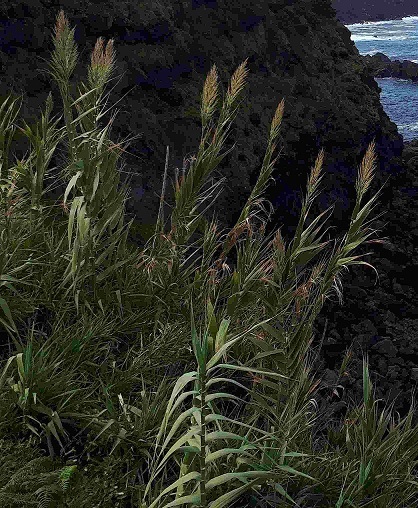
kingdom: Plantae
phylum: Tracheophyta
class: Liliopsida
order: Poales
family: Poaceae
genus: Arundo
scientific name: Arundo donax
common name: Giant reed
